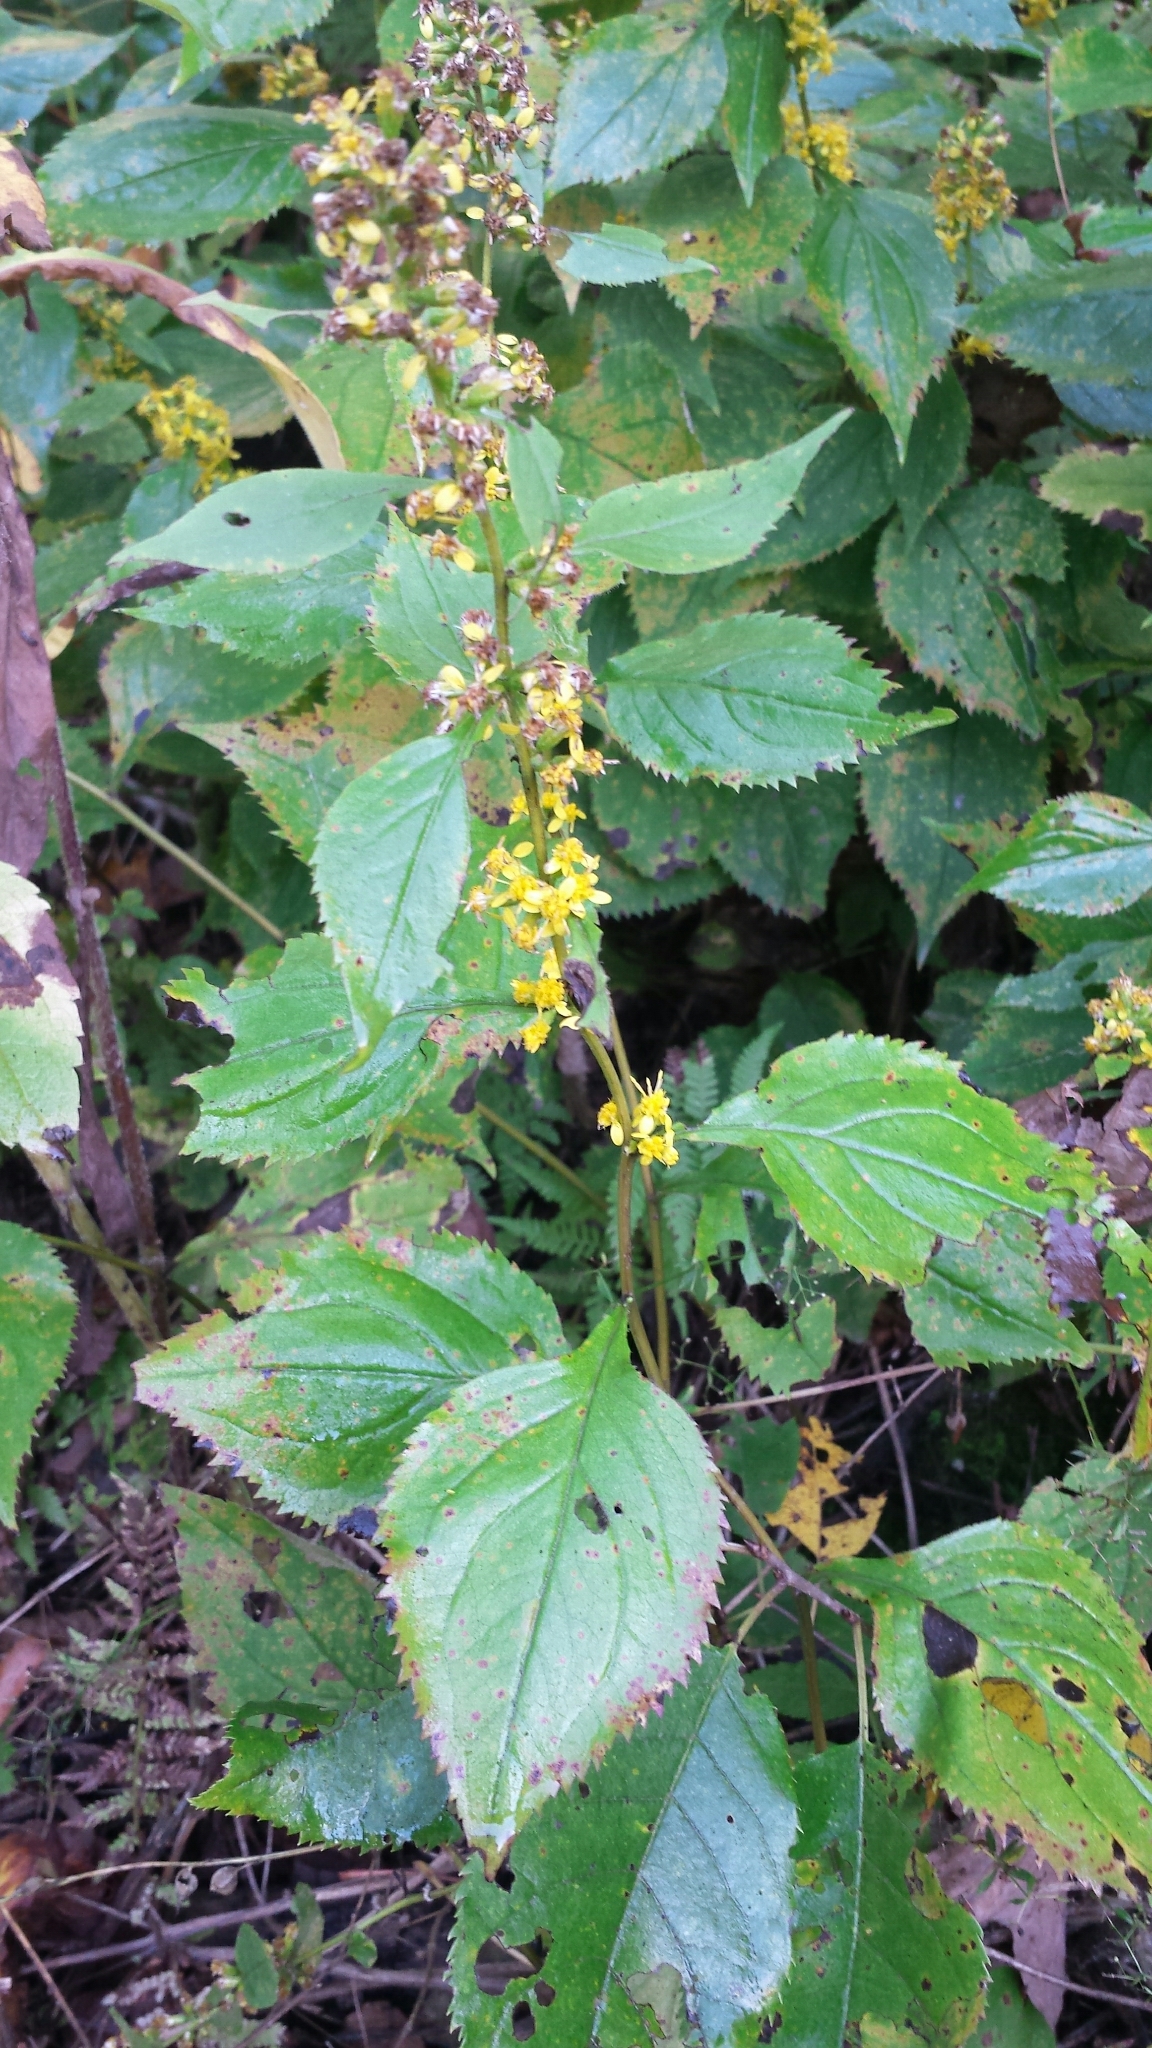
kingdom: Plantae
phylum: Tracheophyta
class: Magnoliopsida
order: Asterales
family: Asteraceae
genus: Solidago
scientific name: Solidago flexicaulis
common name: Zig-zag goldenrod
